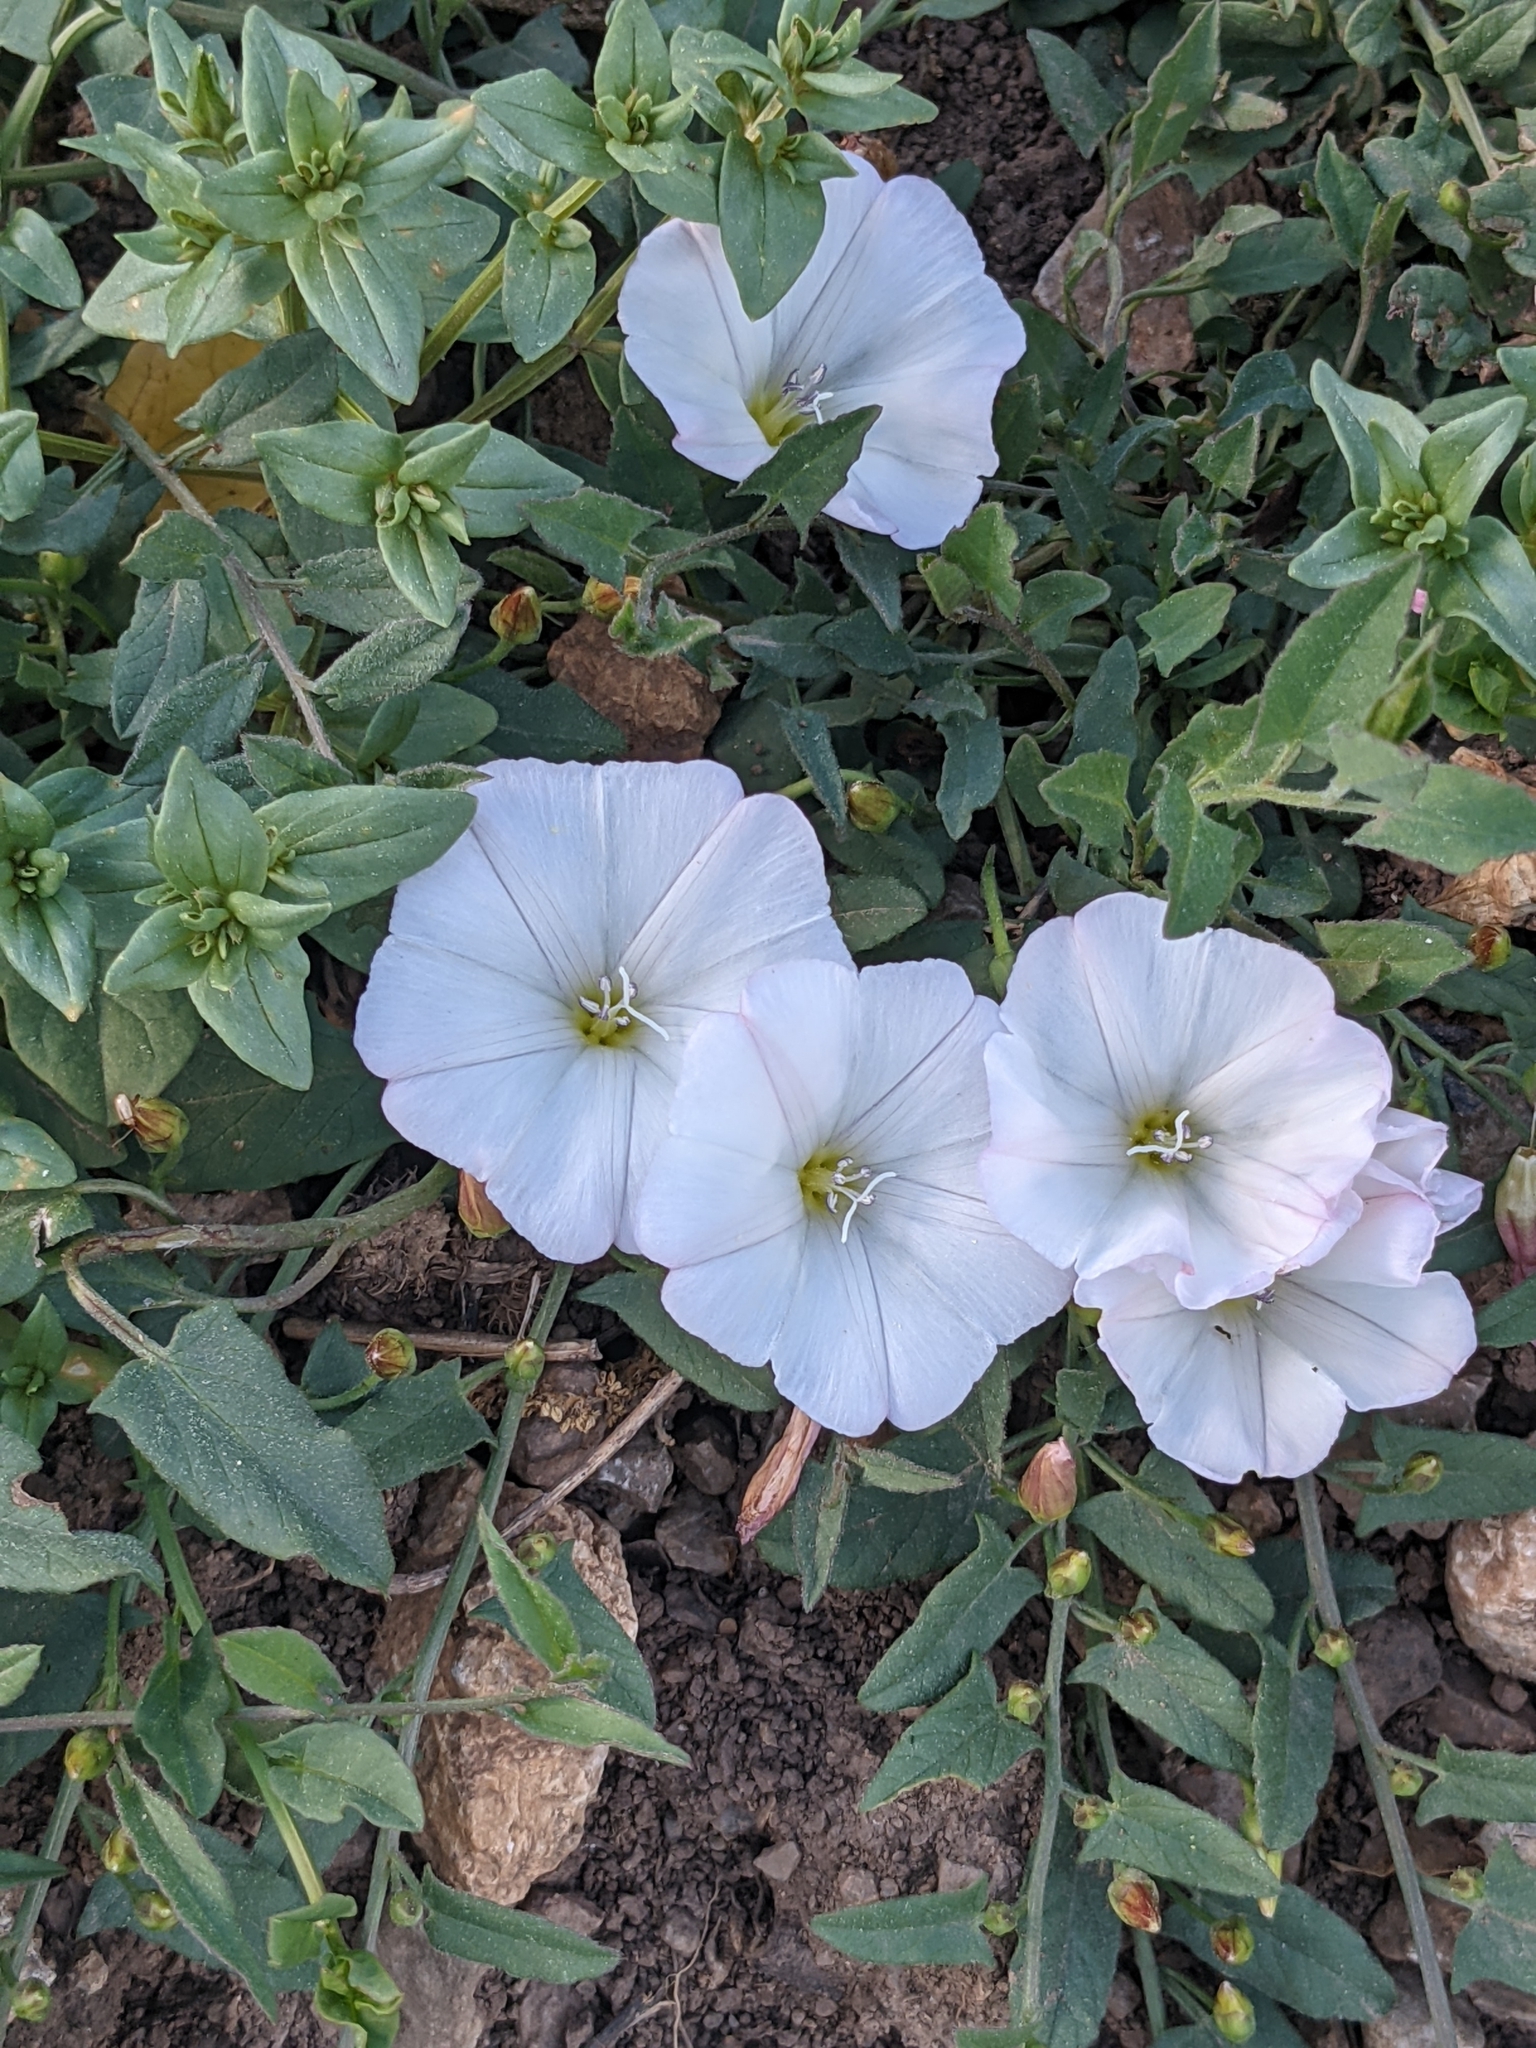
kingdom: Plantae
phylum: Tracheophyta
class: Magnoliopsida
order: Solanales
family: Convolvulaceae
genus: Convolvulus
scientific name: Convolvulus arvensis
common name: Field bindweed
